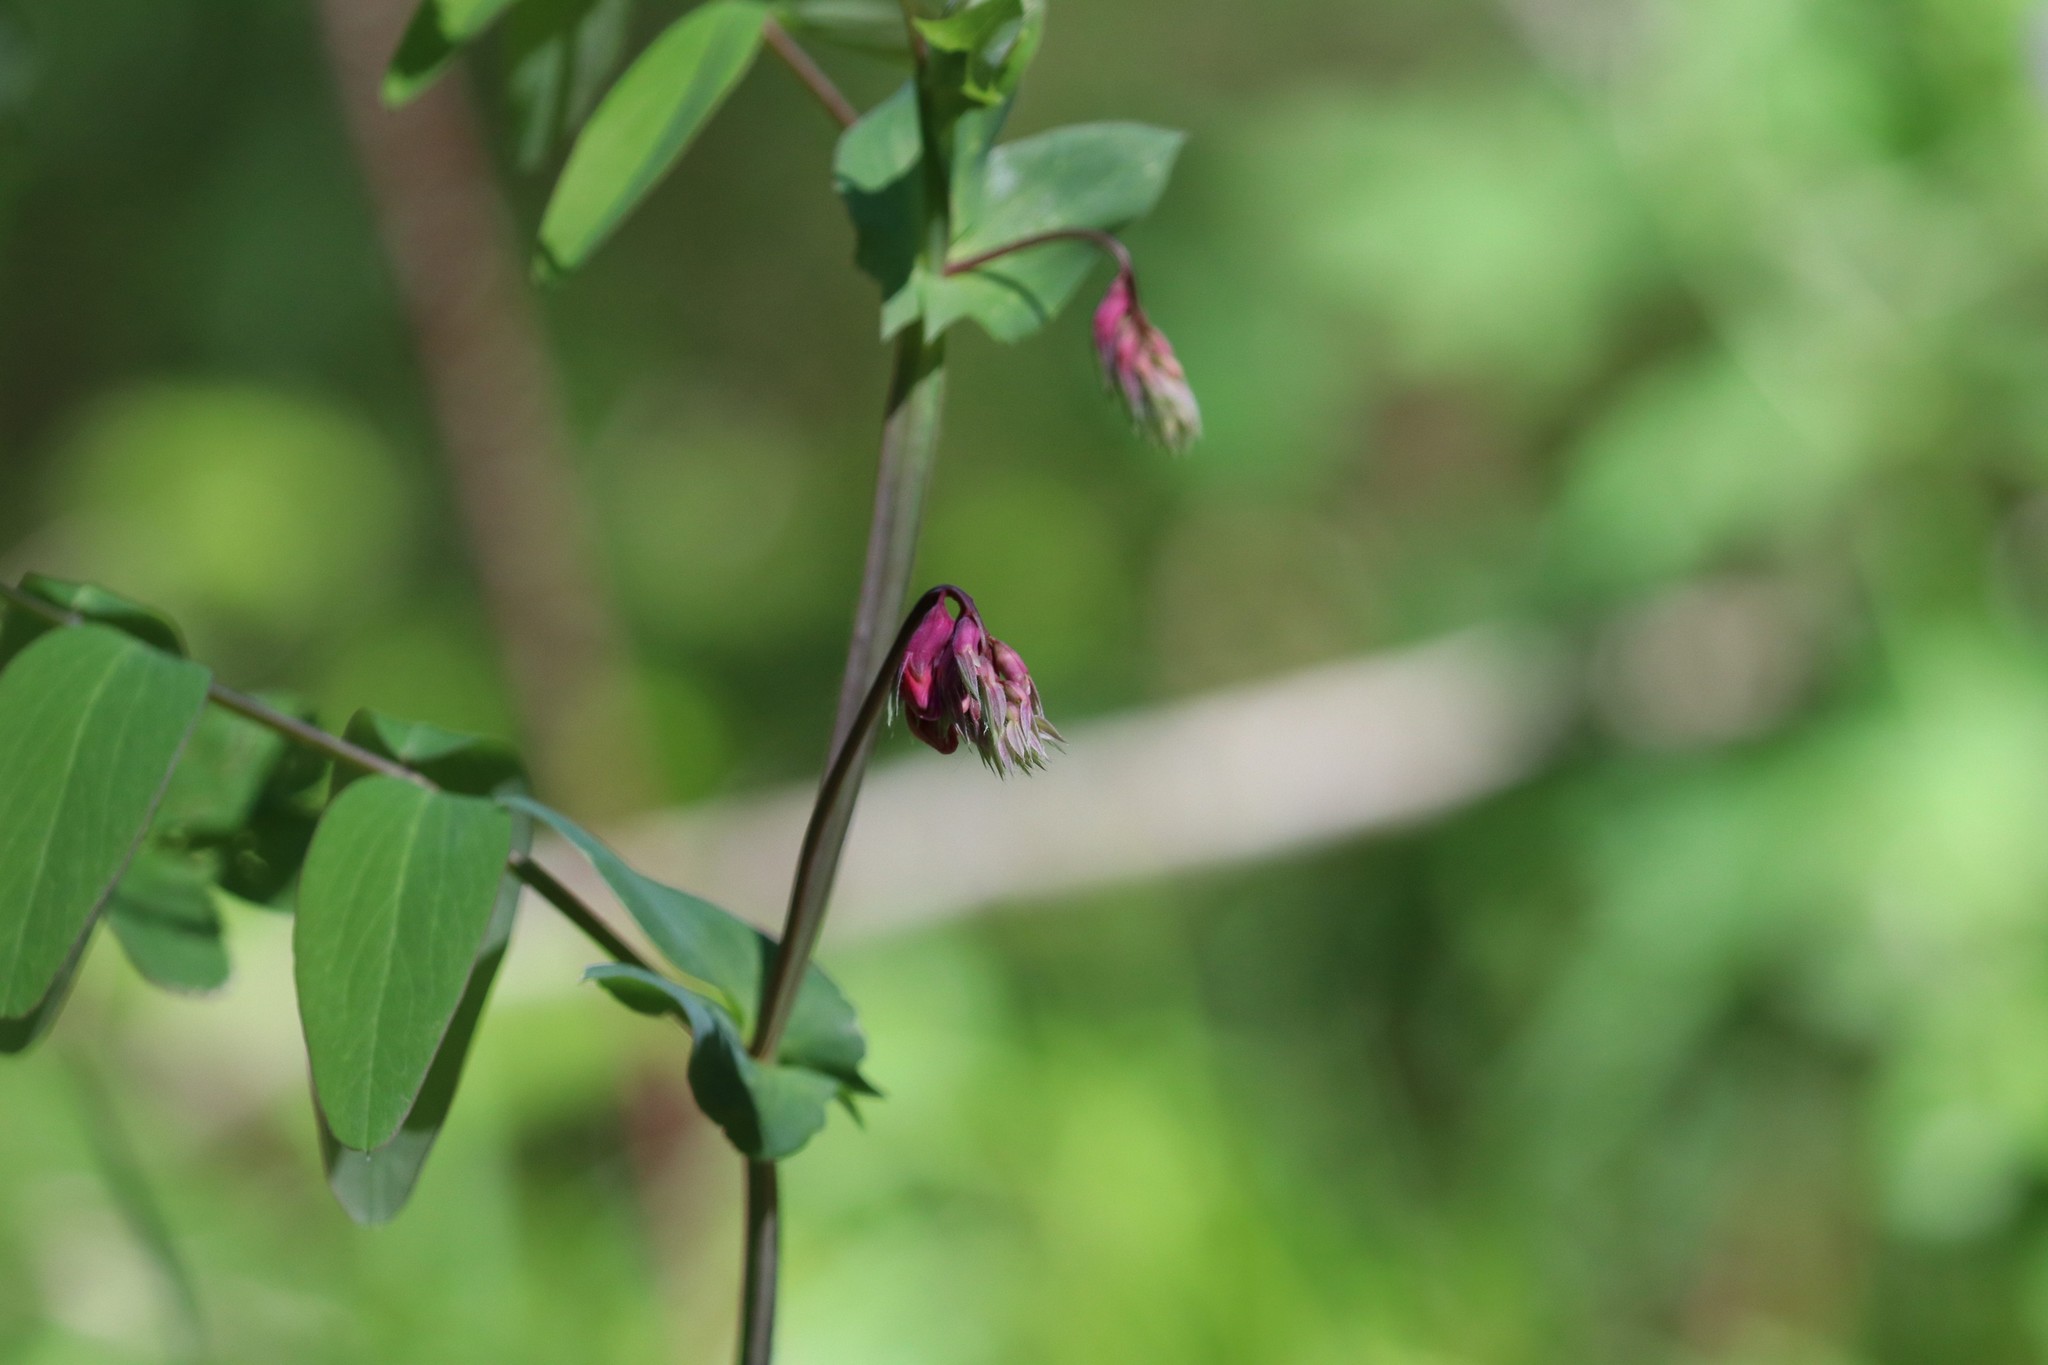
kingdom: Plantae
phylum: Tracheophyta
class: Magnoliopsida
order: Fabales
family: Fabaceae
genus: Lathyrus
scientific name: Lathyrus pisiformis
